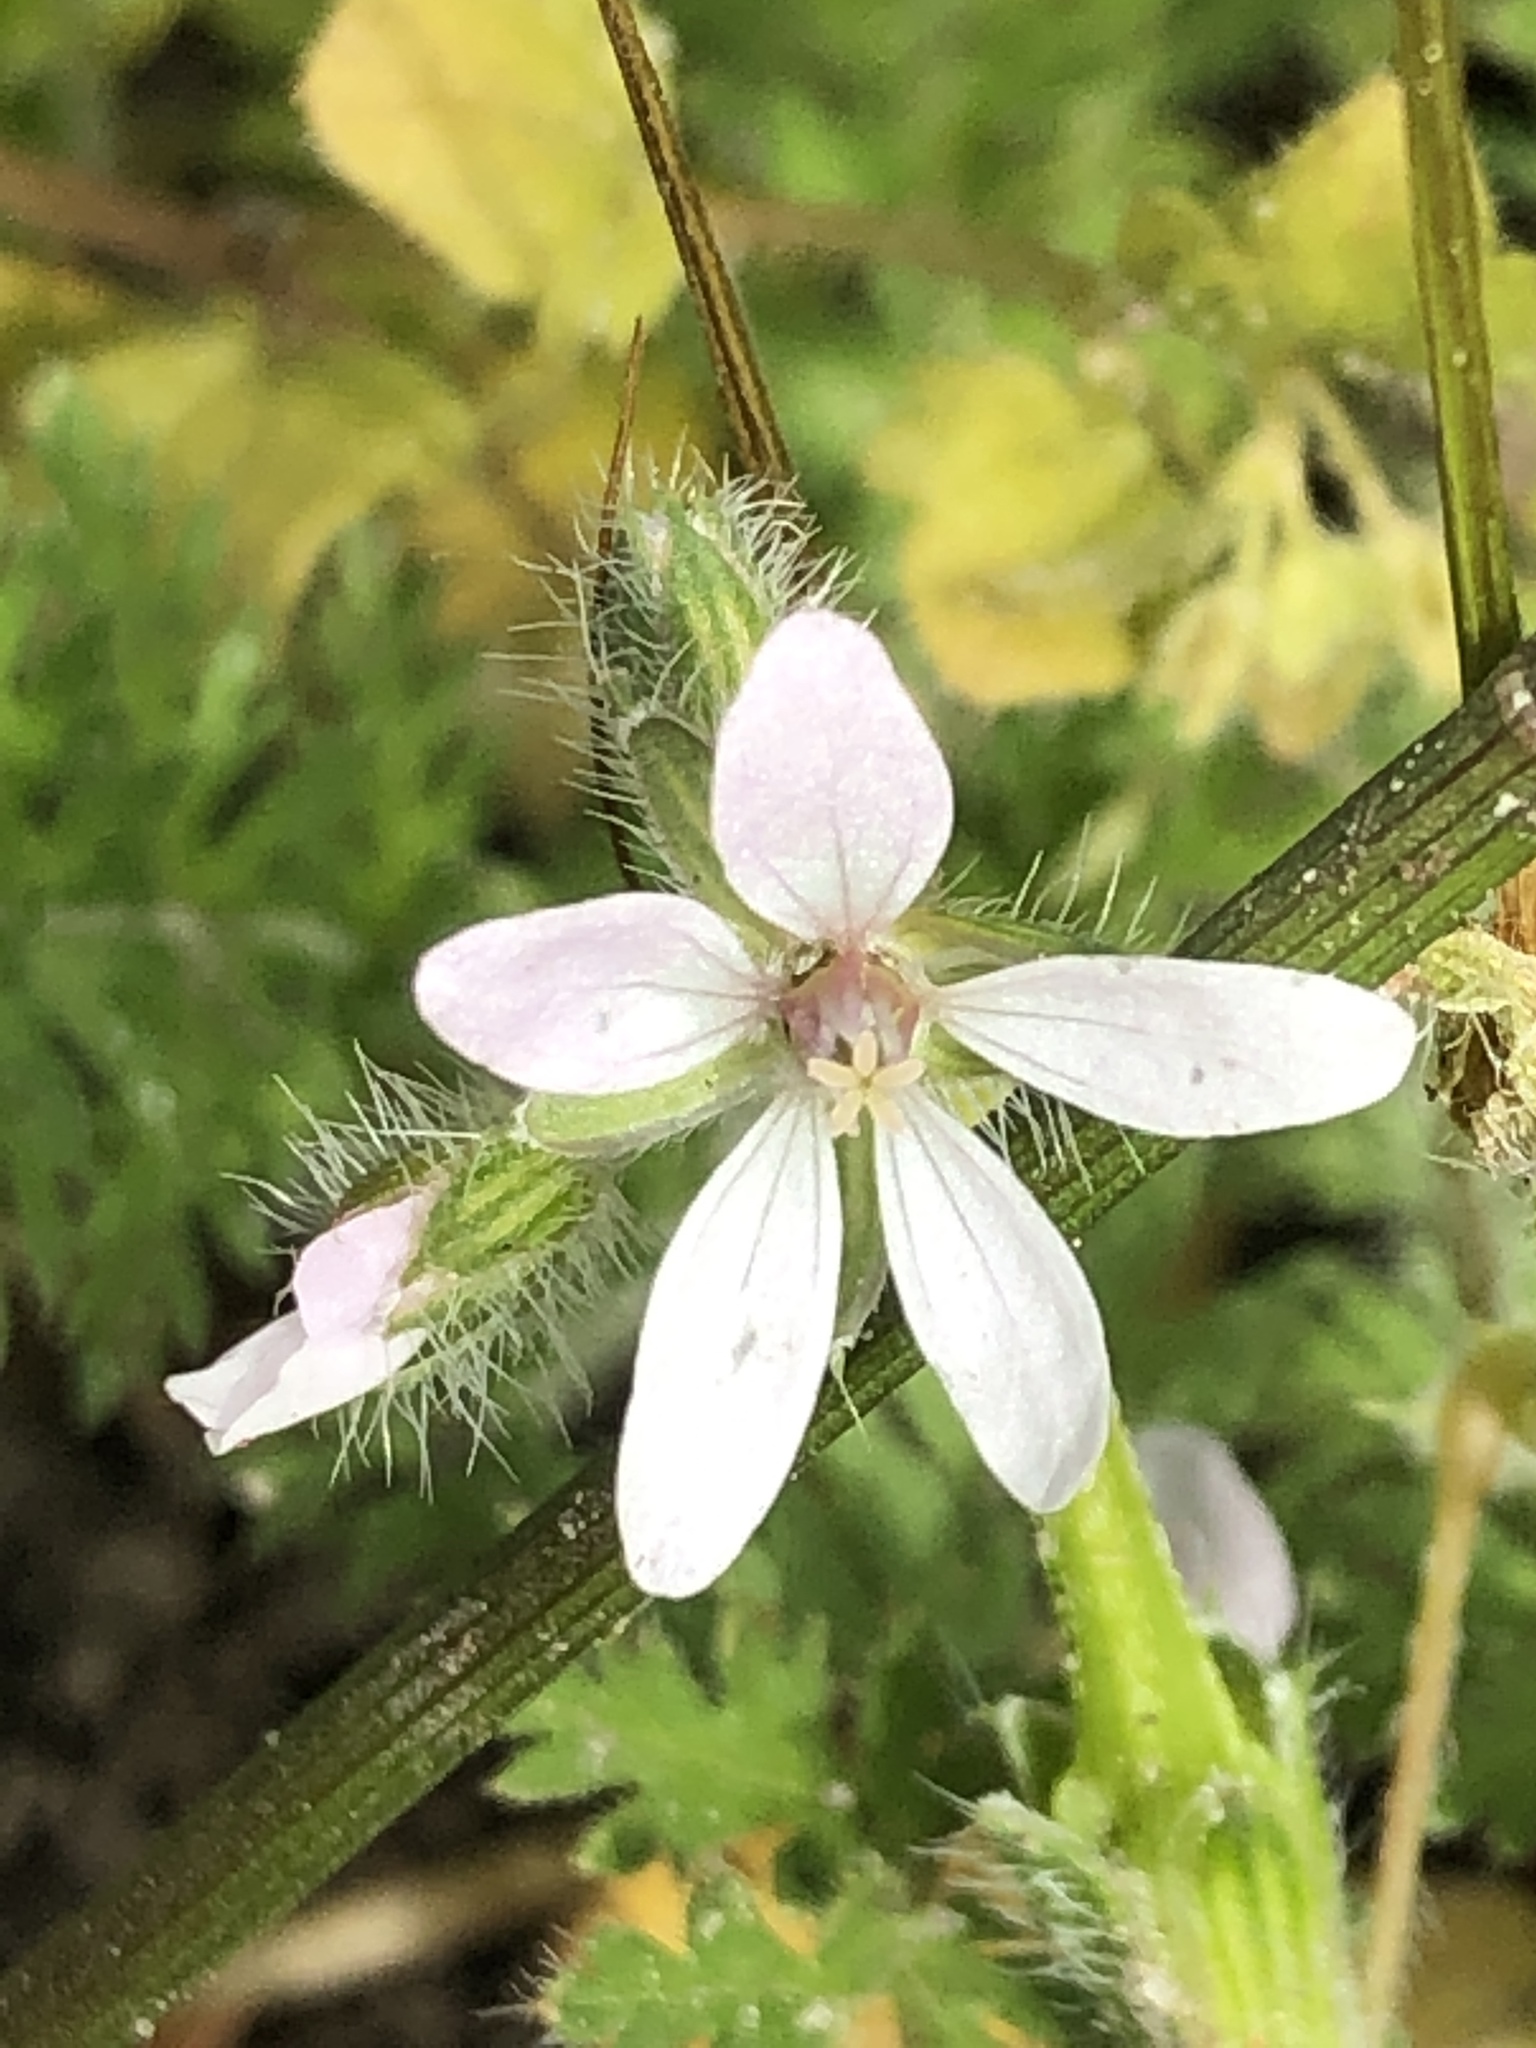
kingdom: Plantae
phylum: Tracheophyta
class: Magnoliopsida
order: Geraniales
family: Geraniaceae
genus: Erodium
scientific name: Erodium cicutarium
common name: Common stork's-bill
